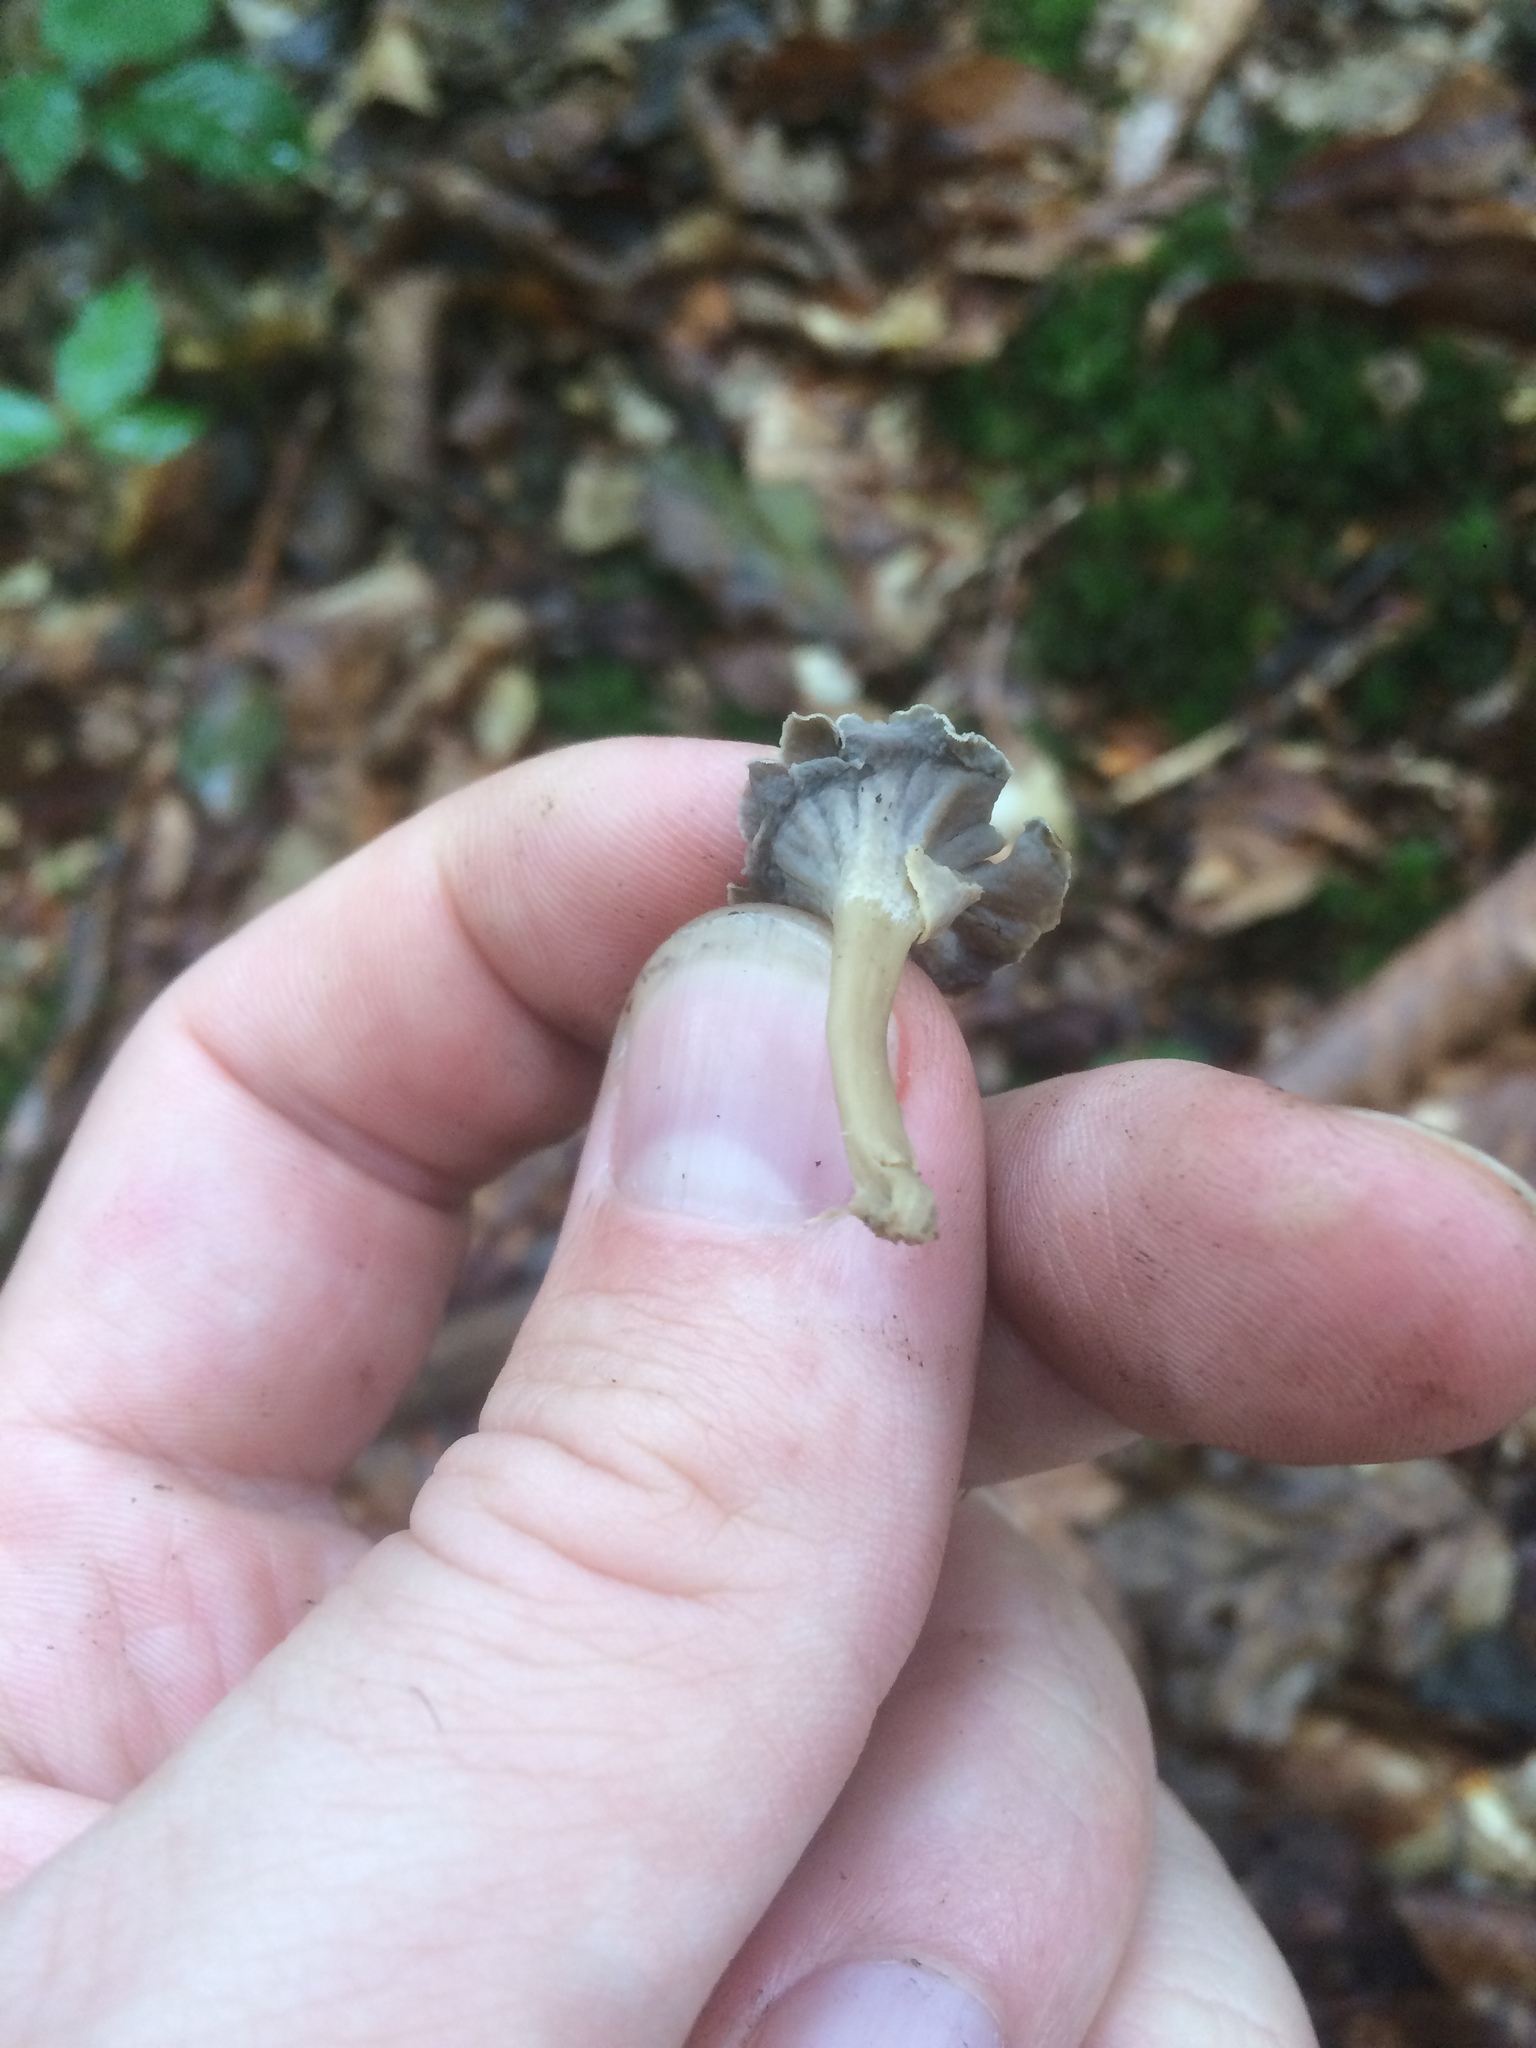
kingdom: Fungi
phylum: Basidiomycota
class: Agaricomycetes
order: Cantharellales
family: Hydnaceae
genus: Craterellus
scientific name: Craterellus undulatus
